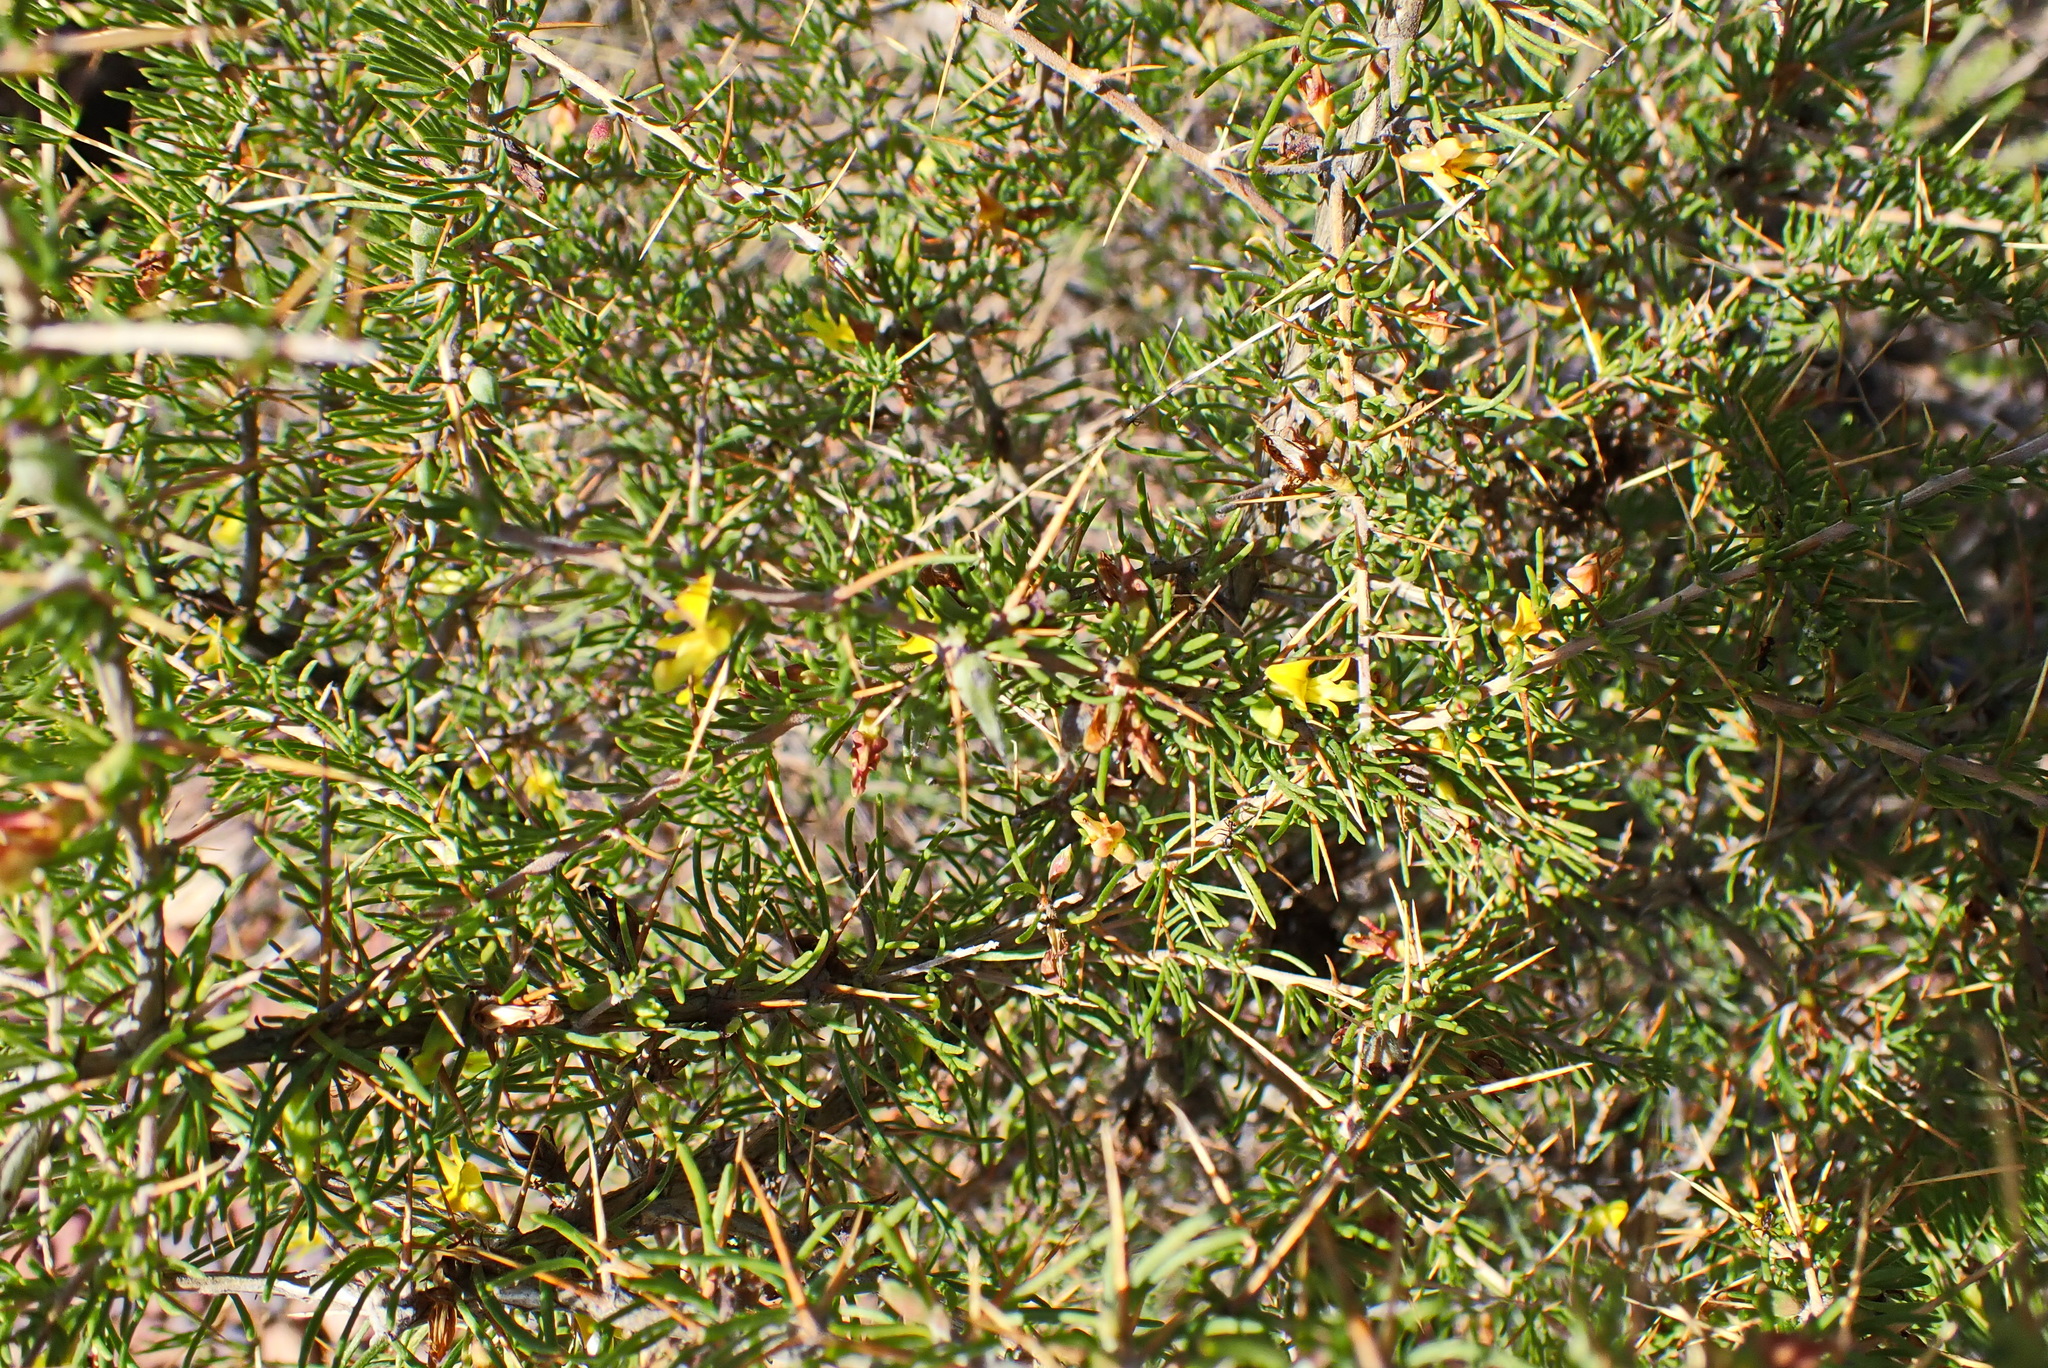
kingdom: Plantae
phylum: Tracheophyta
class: Magnoliopsida
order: Fabales
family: Fabaceae
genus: Aspalathus
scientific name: Aspalathus spinosa
